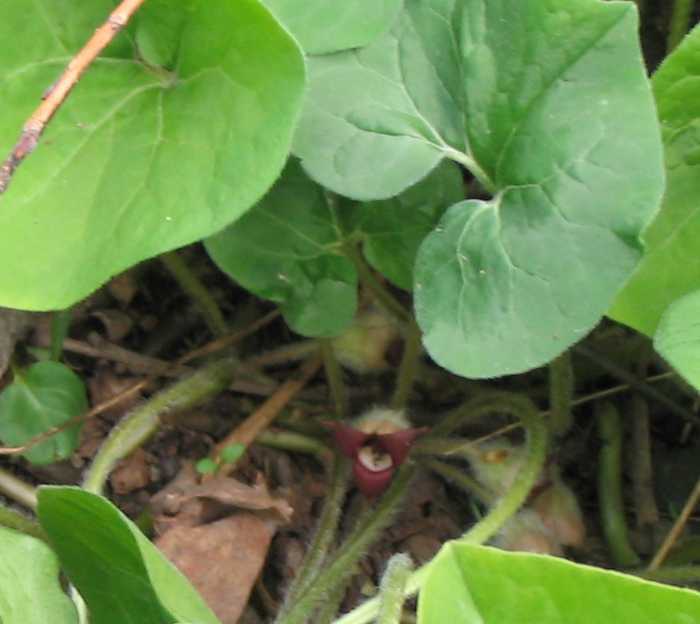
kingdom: Plantae
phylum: Tracheophyta
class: Magnoliopsida
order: Piperales
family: Aristolochiaceae
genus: Asarum
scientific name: Asarum canadense
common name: Wild ginger
